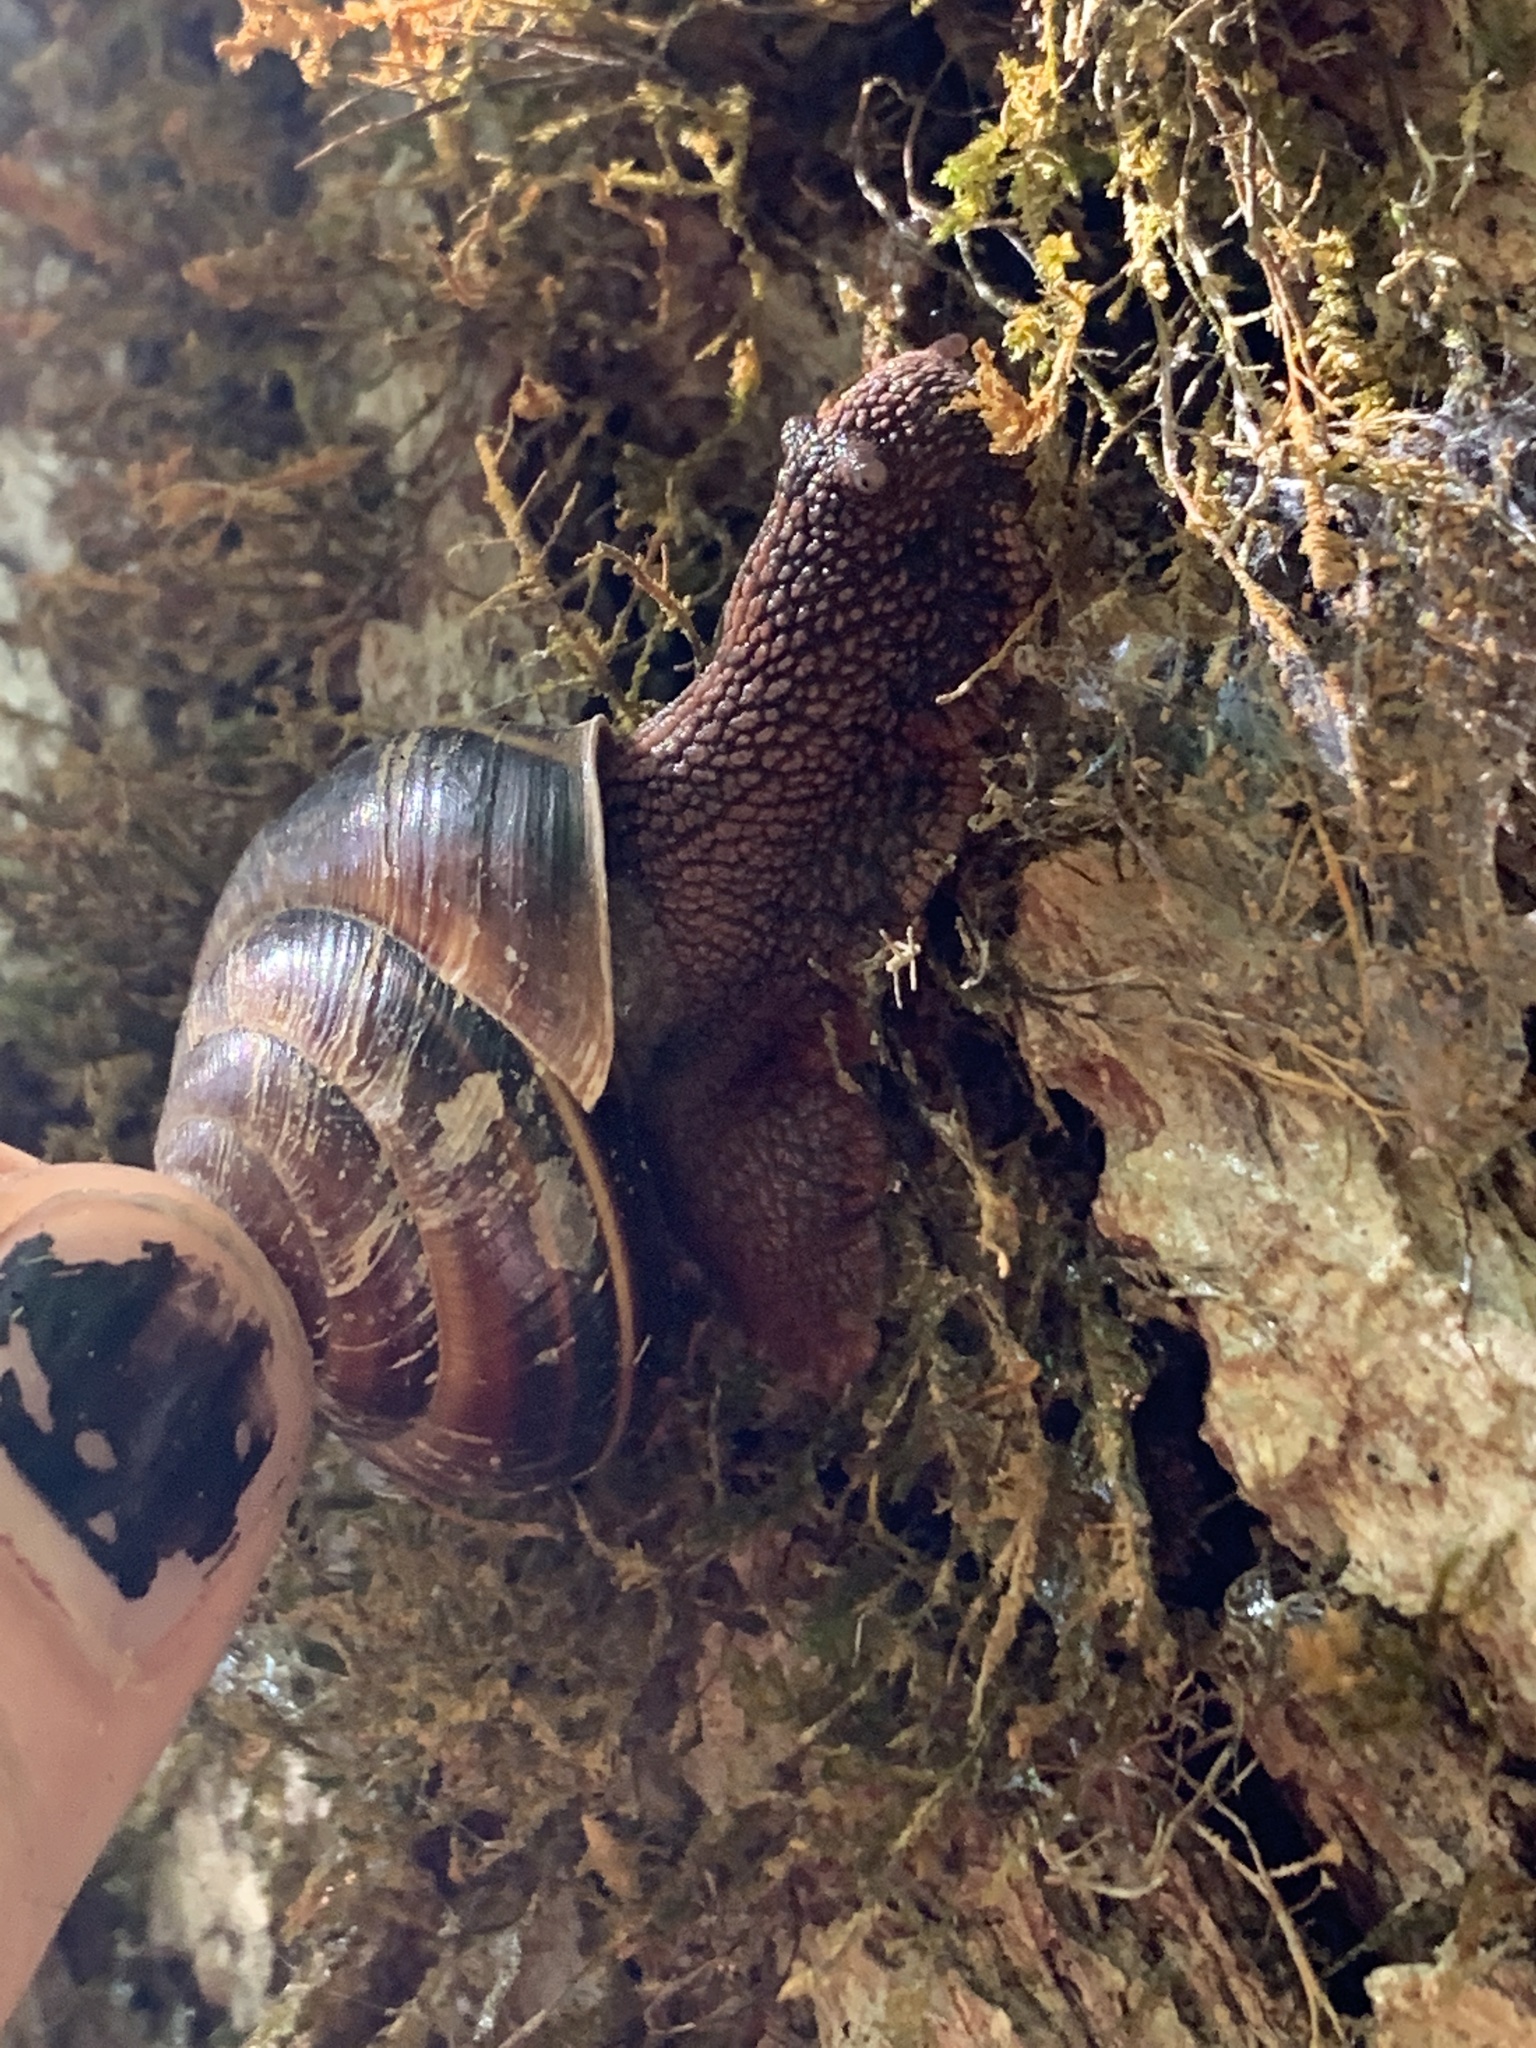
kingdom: Animalia
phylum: Mollusca
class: Gastropoda
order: Stylommatophora
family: Xanthonychidae
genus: Monadenia
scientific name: Monadenia fidelis
